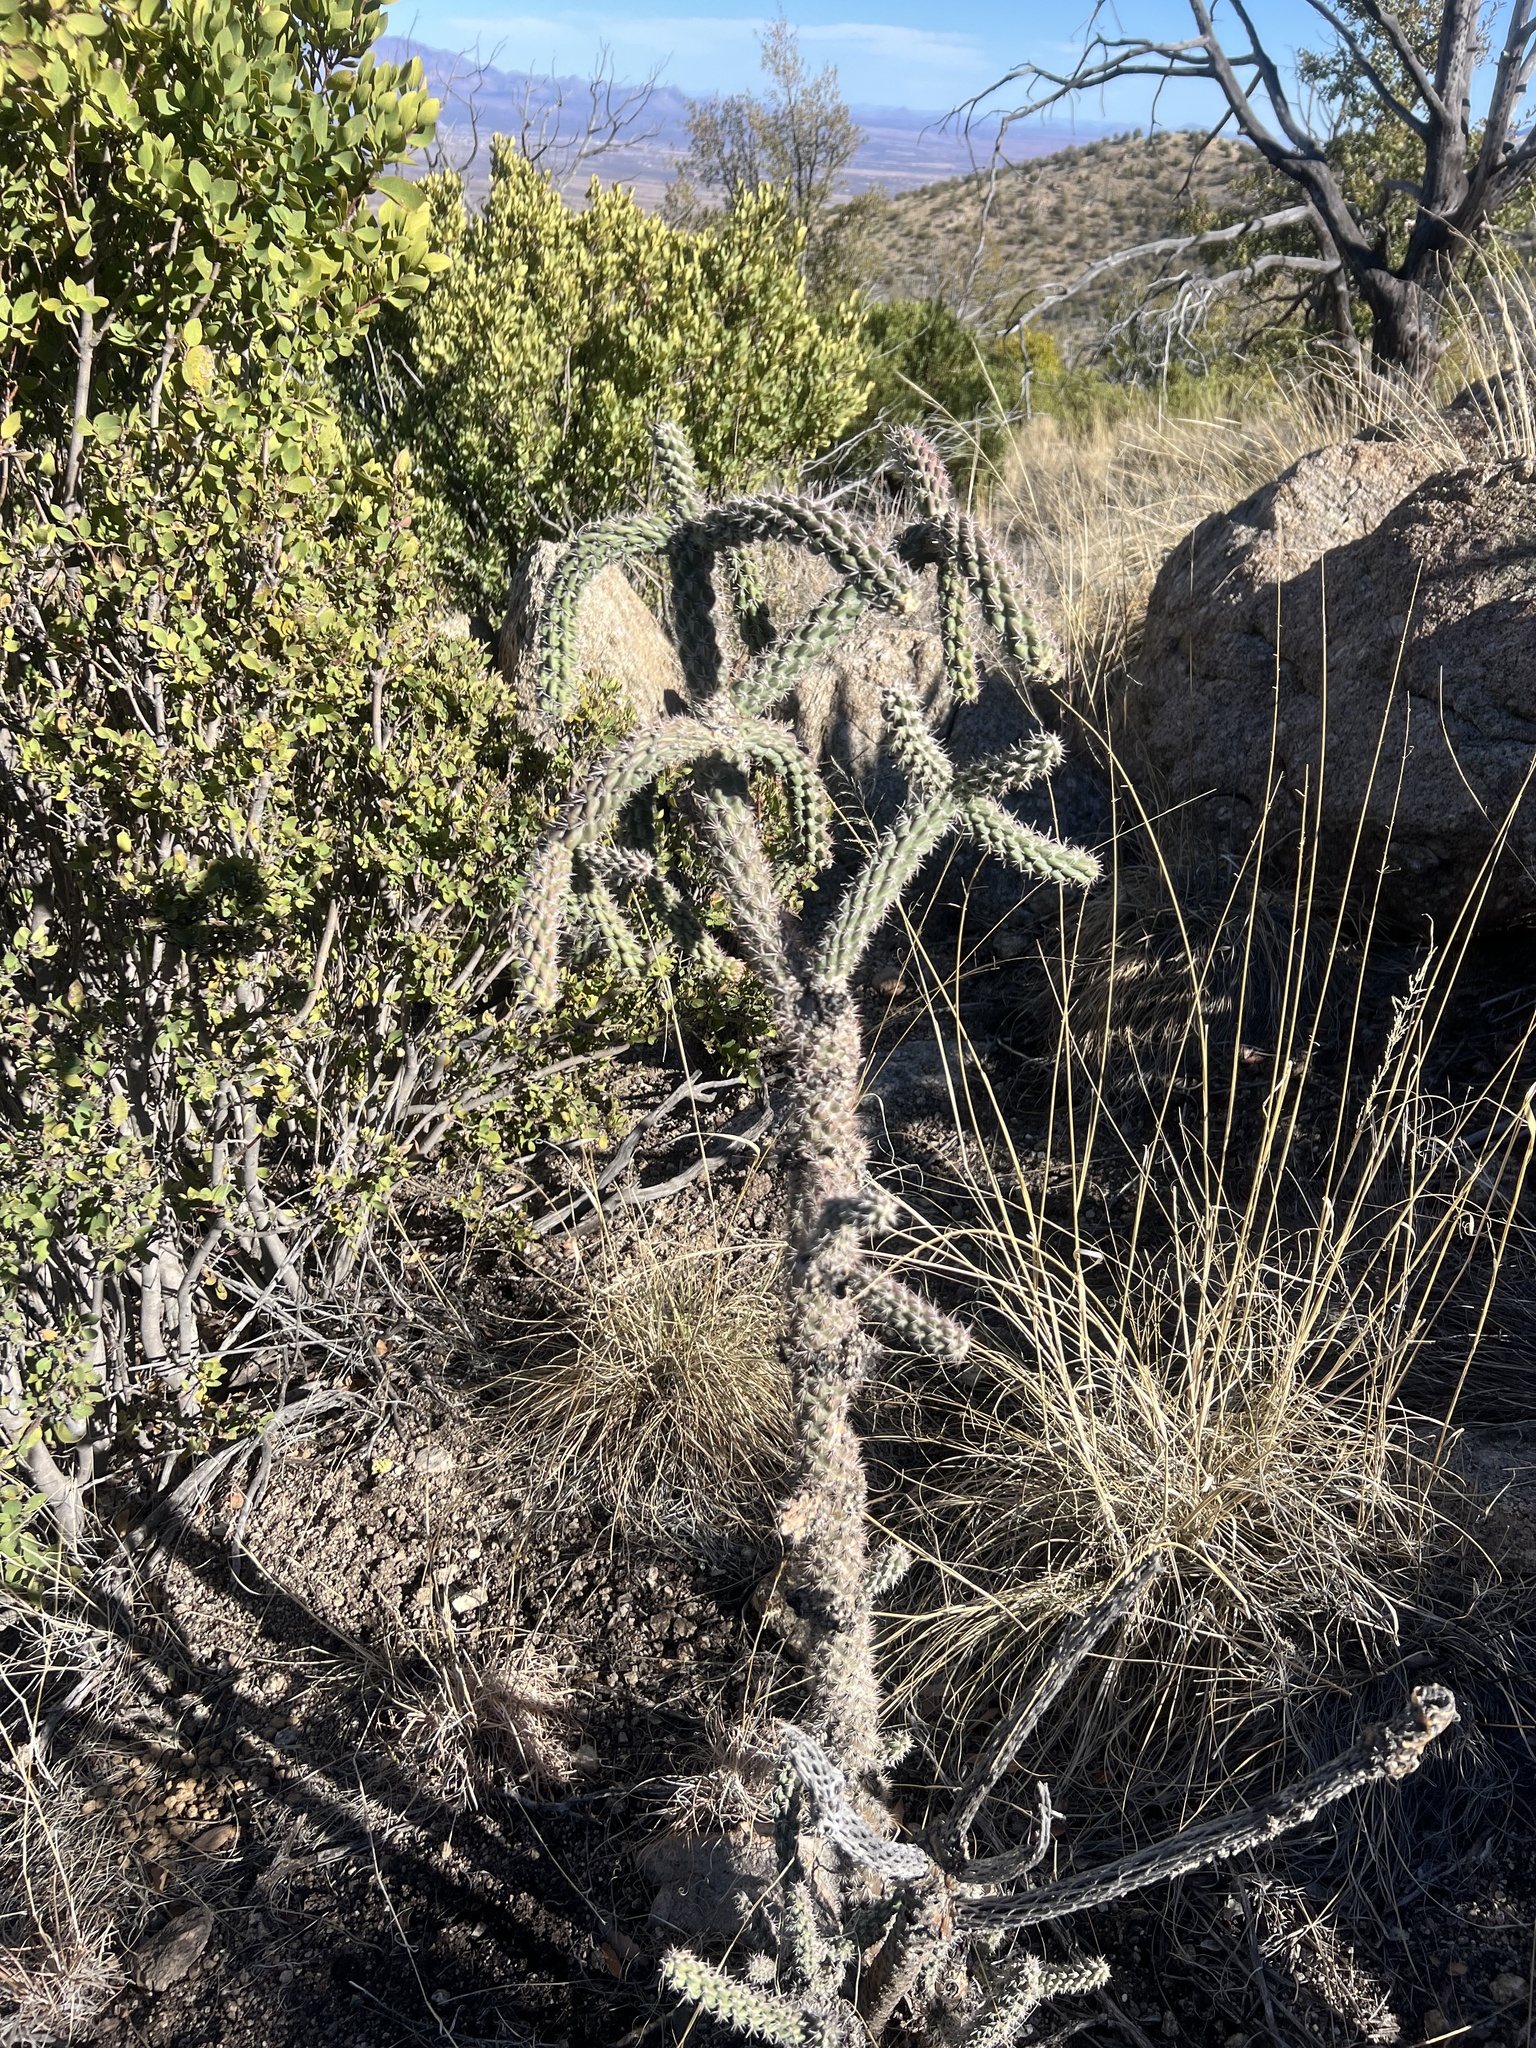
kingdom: Plantae
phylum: Tracheophyta
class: Magnoliopsida
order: Caryophyllales
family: Cactaceae
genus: Cylindropuntia
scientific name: Cylindropuntia imbricata
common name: Candelabrum cactus
